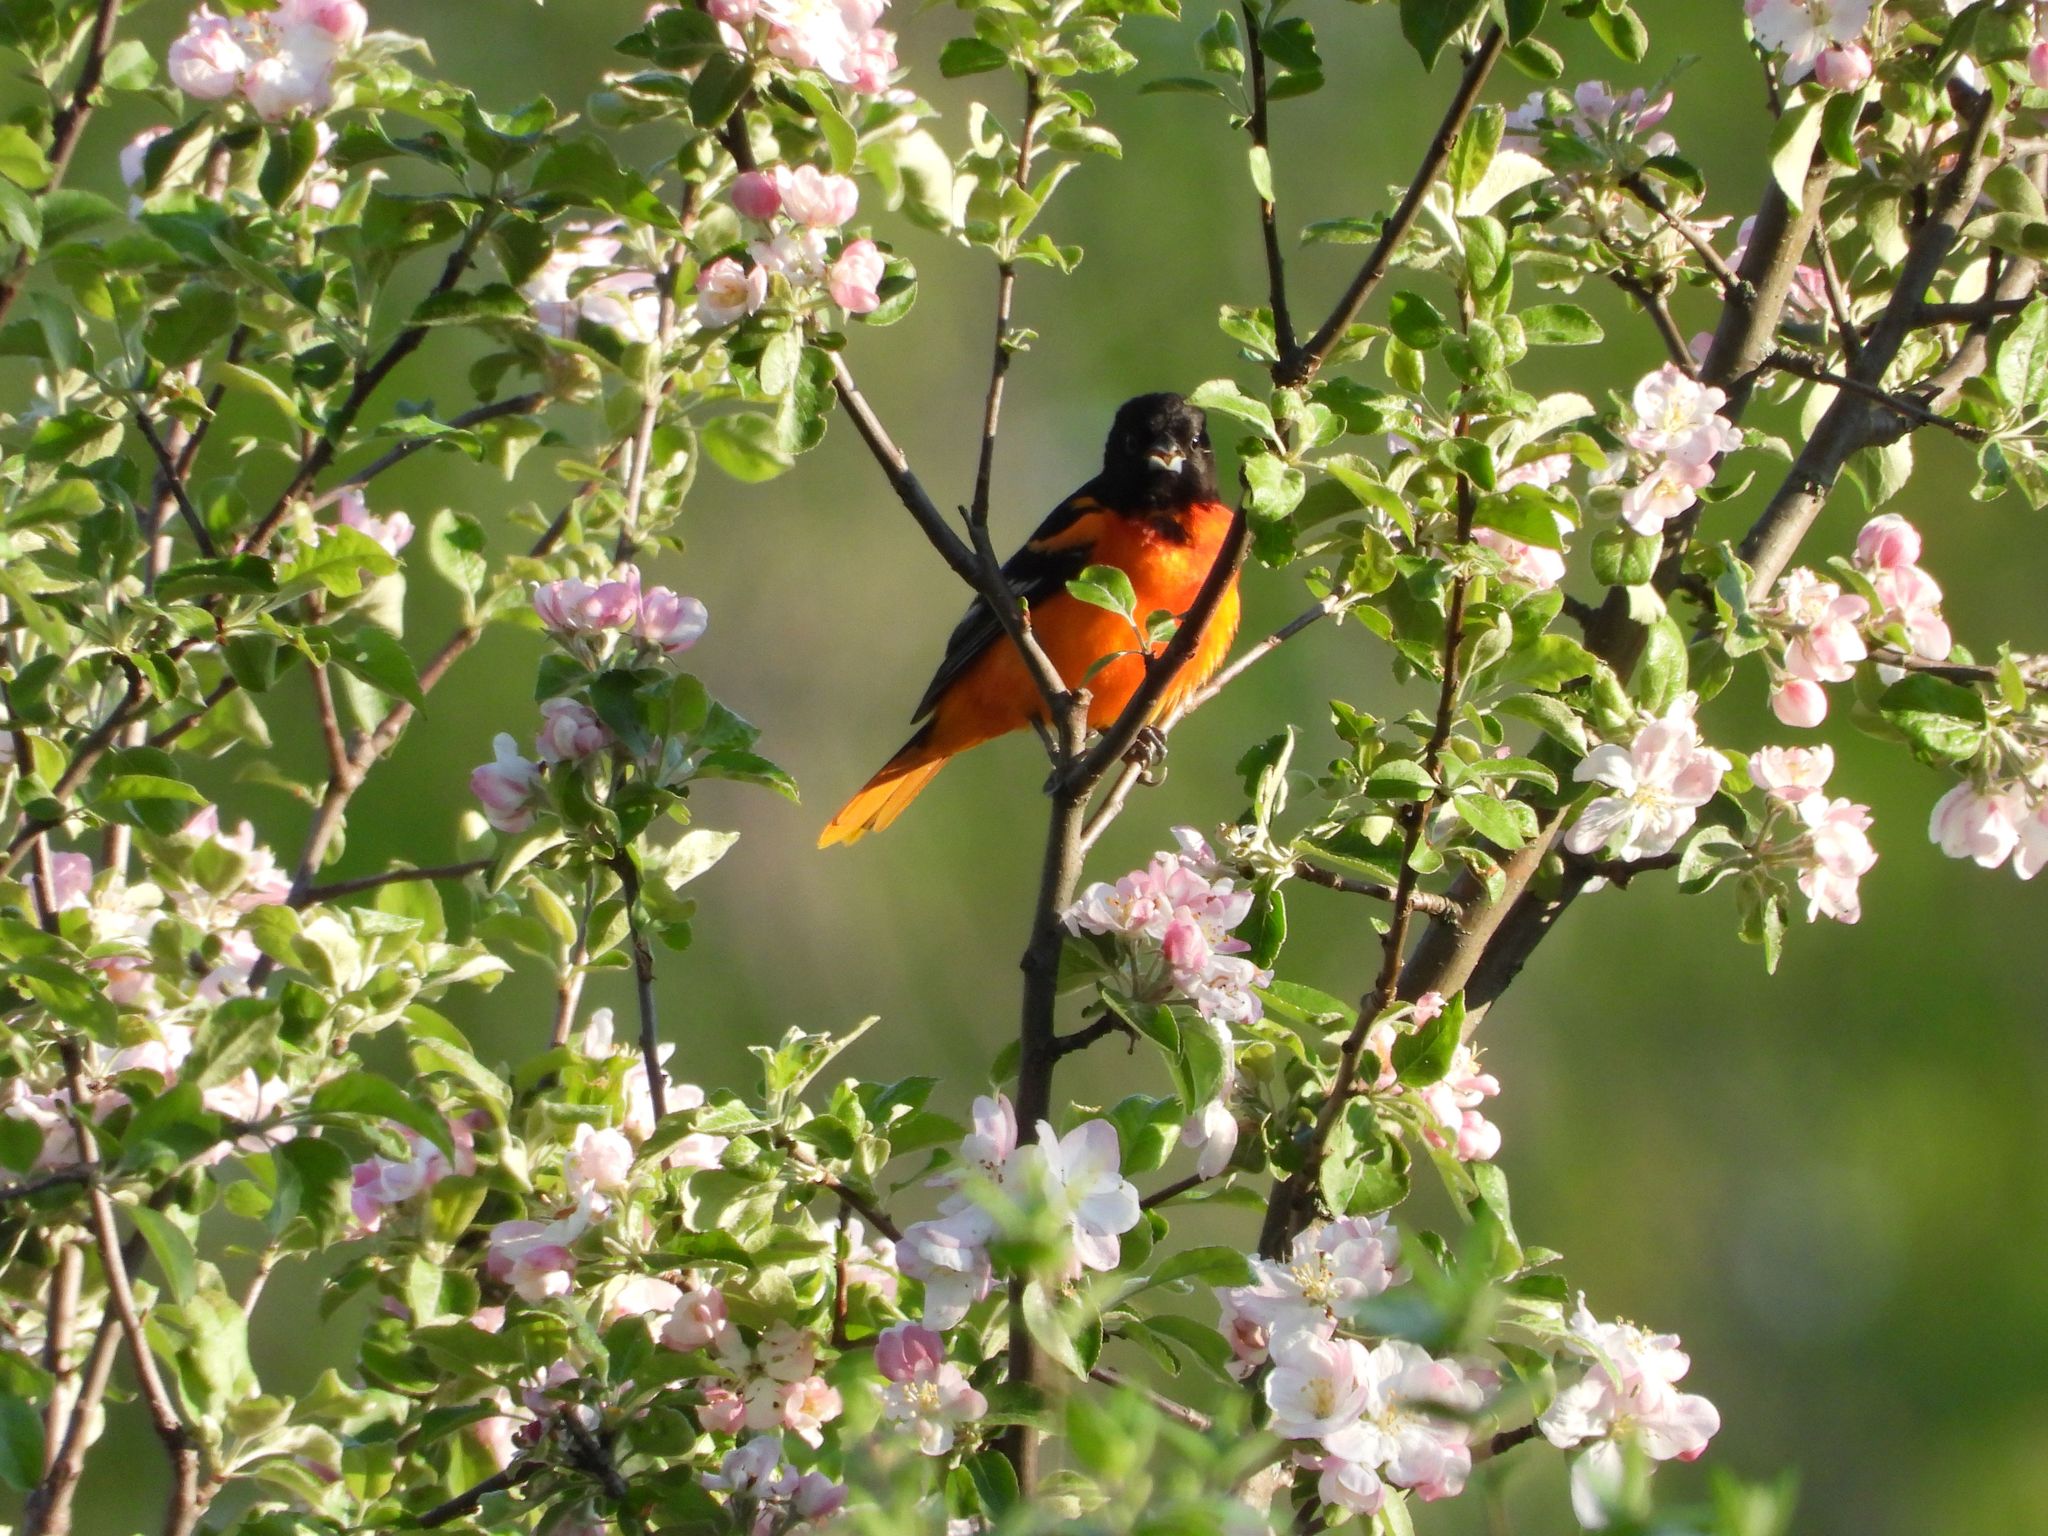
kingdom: Animalia
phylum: Chordata
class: Aves
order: Passeriformes
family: Icteridae
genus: Icterus
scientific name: Icterus galbula
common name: Baltimore oriole
